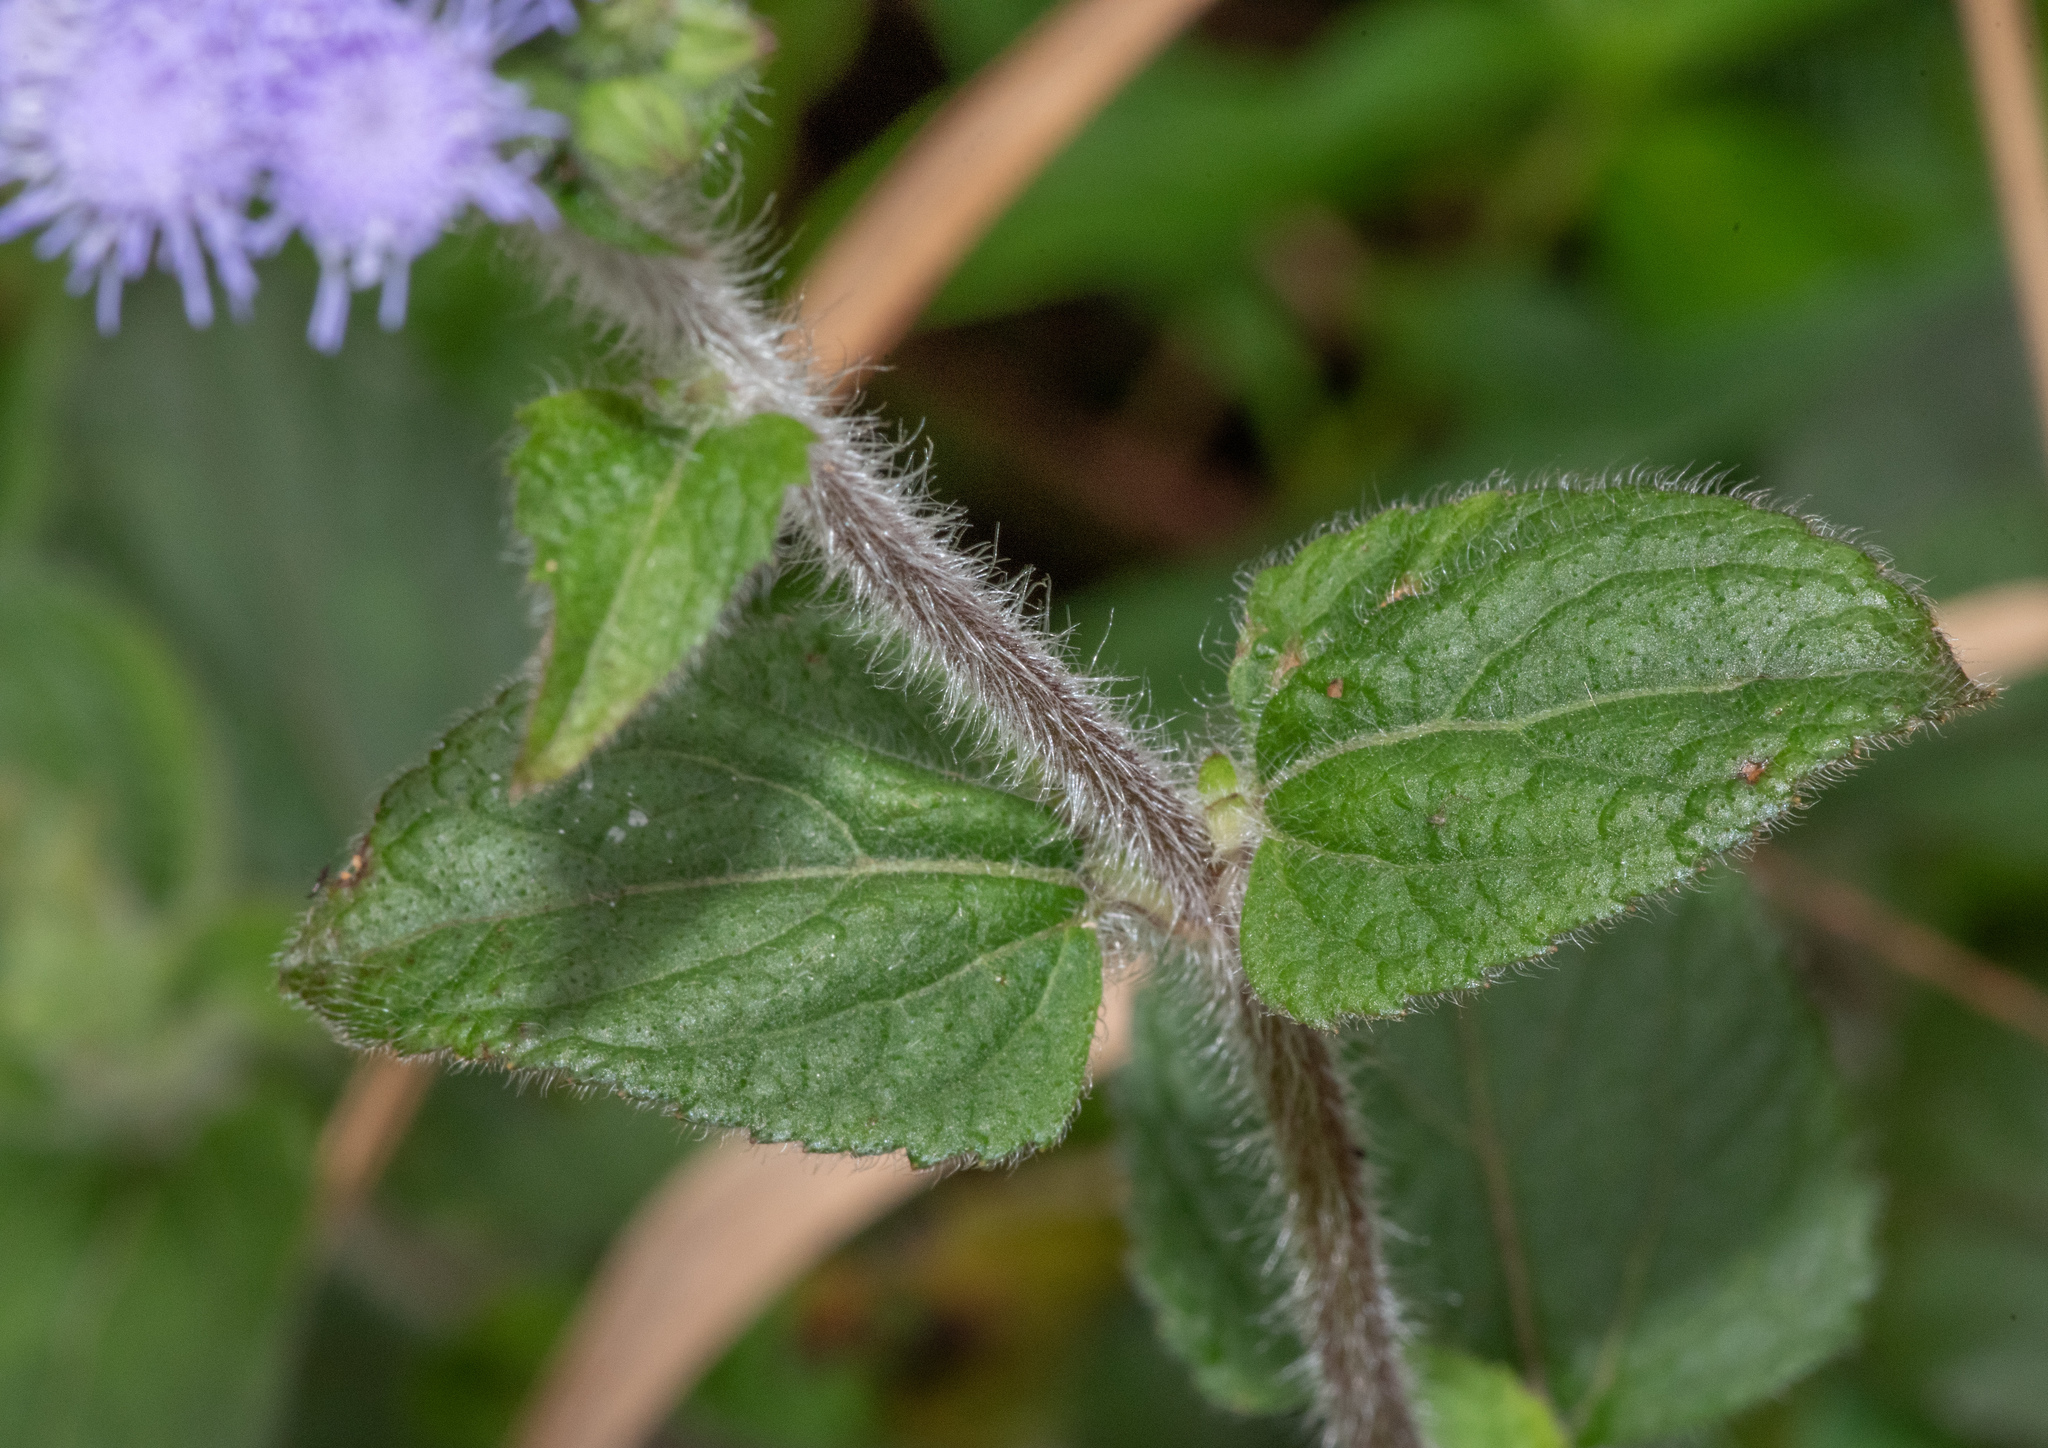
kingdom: Plantae
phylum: Tracheophyta
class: Magnoliopsida
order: Asterales
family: Asteraceae
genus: Ageratum
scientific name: Ageratum houstonianum
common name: Bluemink
